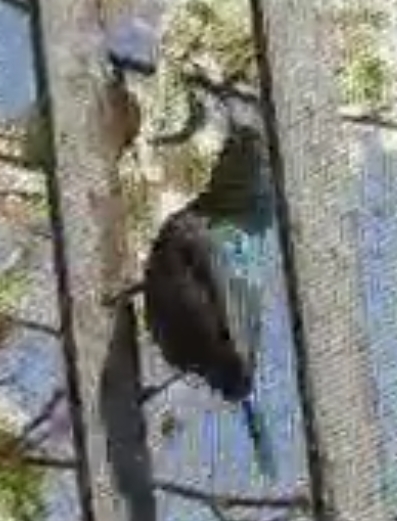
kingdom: Animalia
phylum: Chordata
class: Aves
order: Passeriformes
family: Nectariniidae
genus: Cinnyris
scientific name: Cinnyris osea
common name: Palestine sunbird
